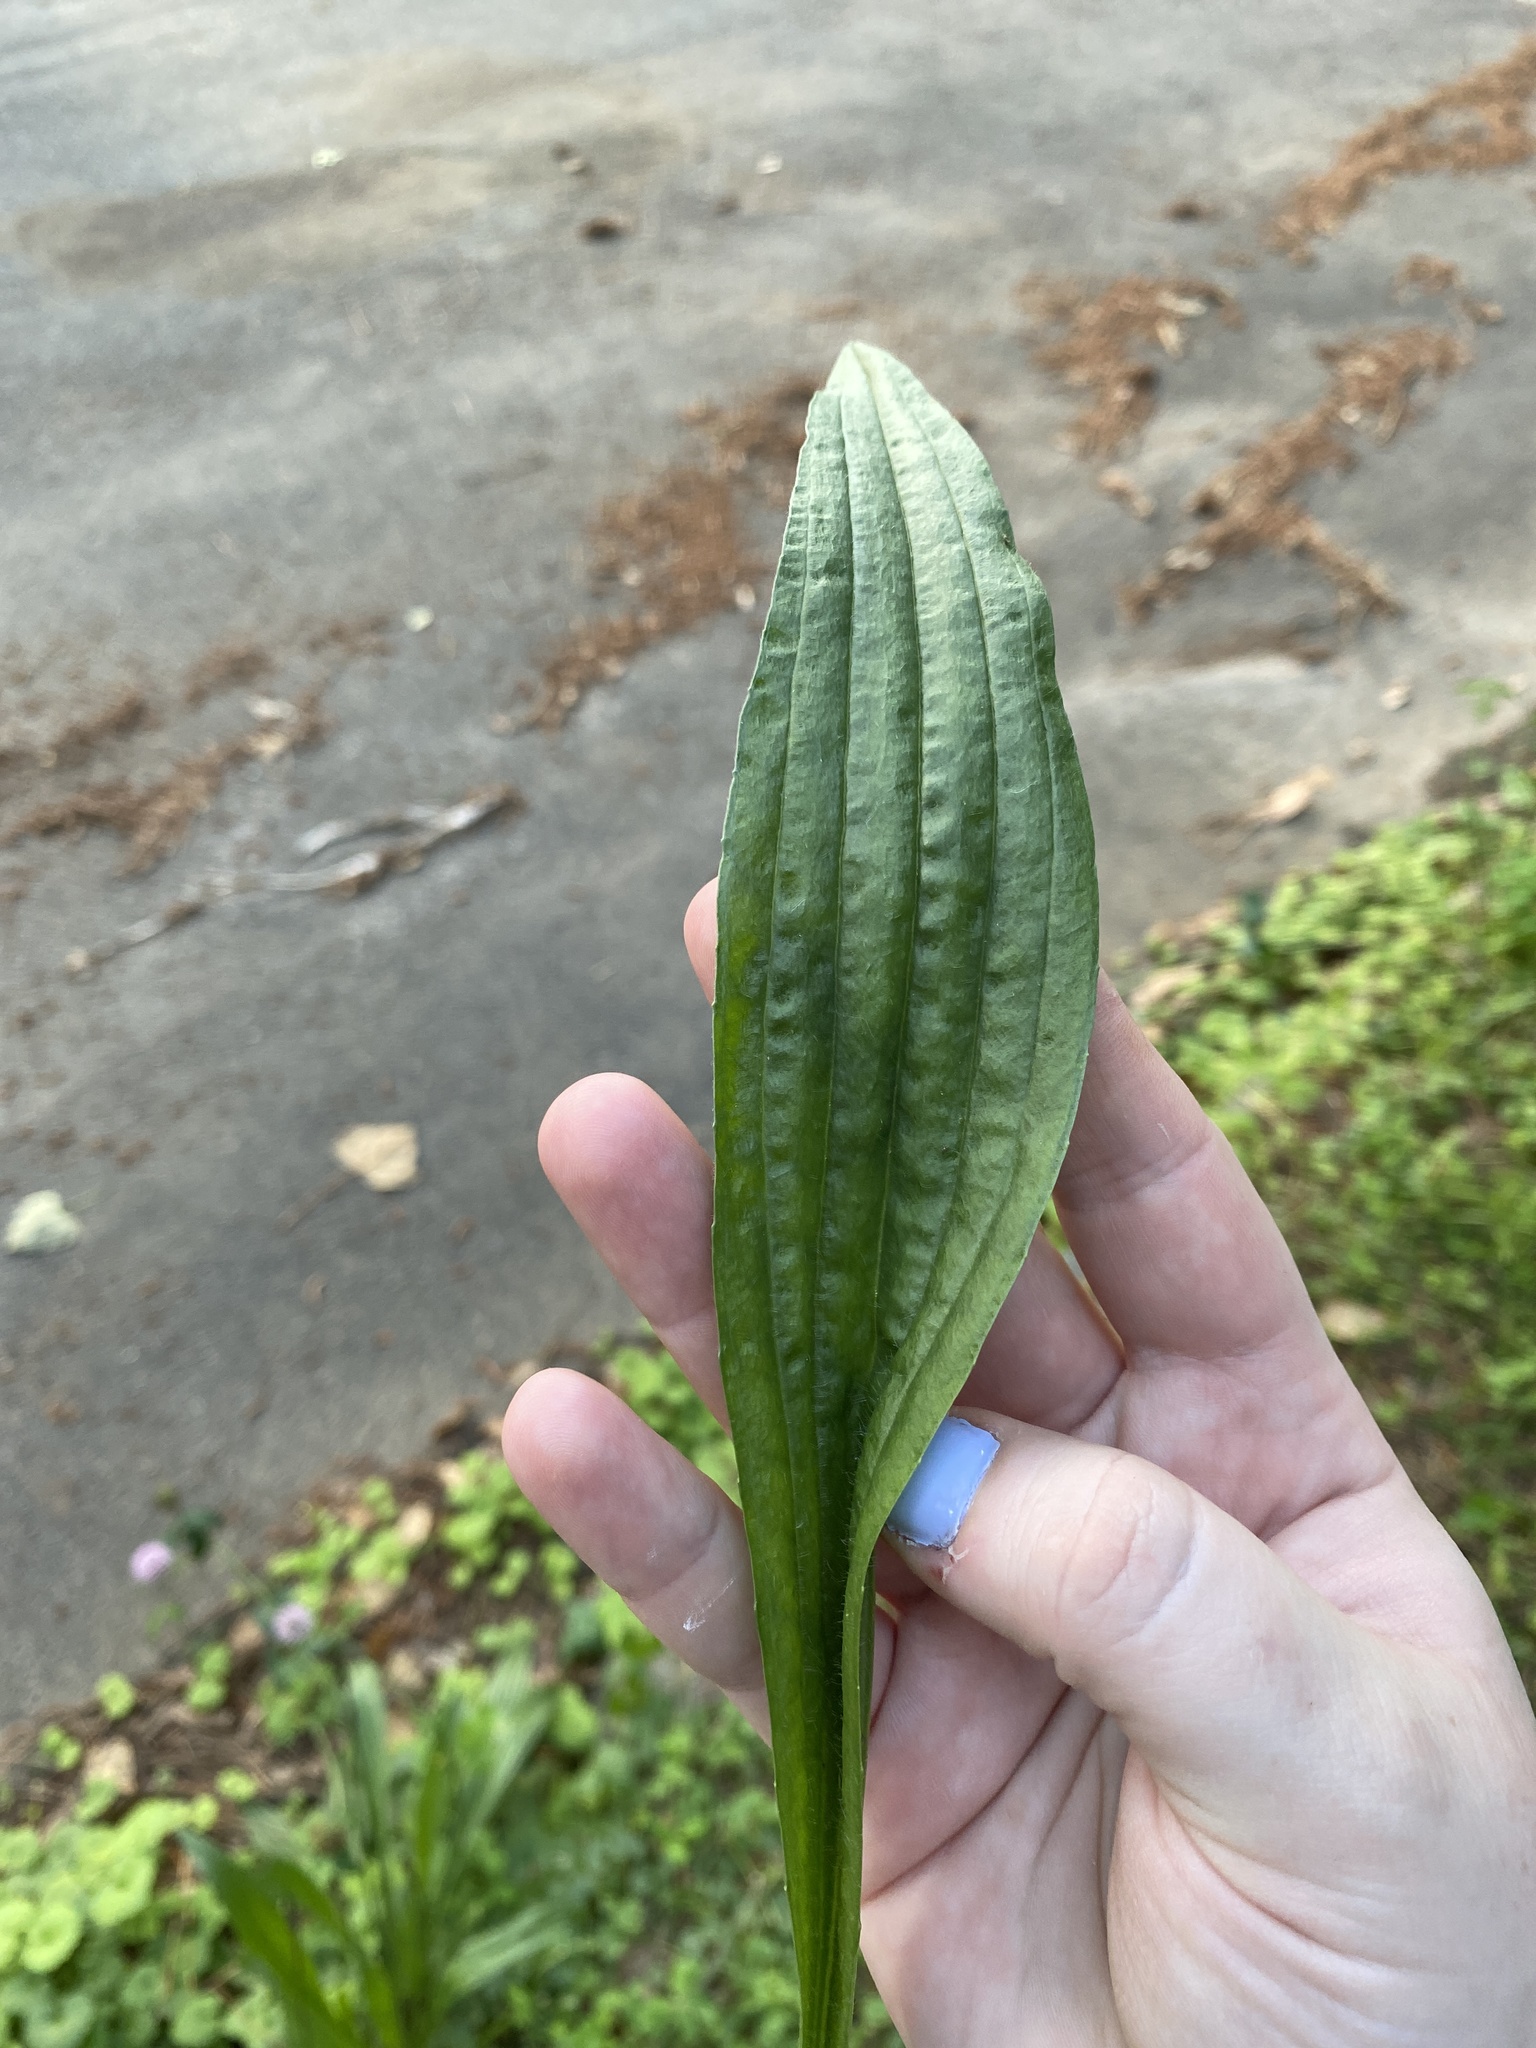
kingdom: Plantae
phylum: Tracheophyta
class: Magnoliopsida
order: Lamiales
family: Plantaginaceae
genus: Plantago
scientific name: Plantago lanceolata
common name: Ribwort plantain
